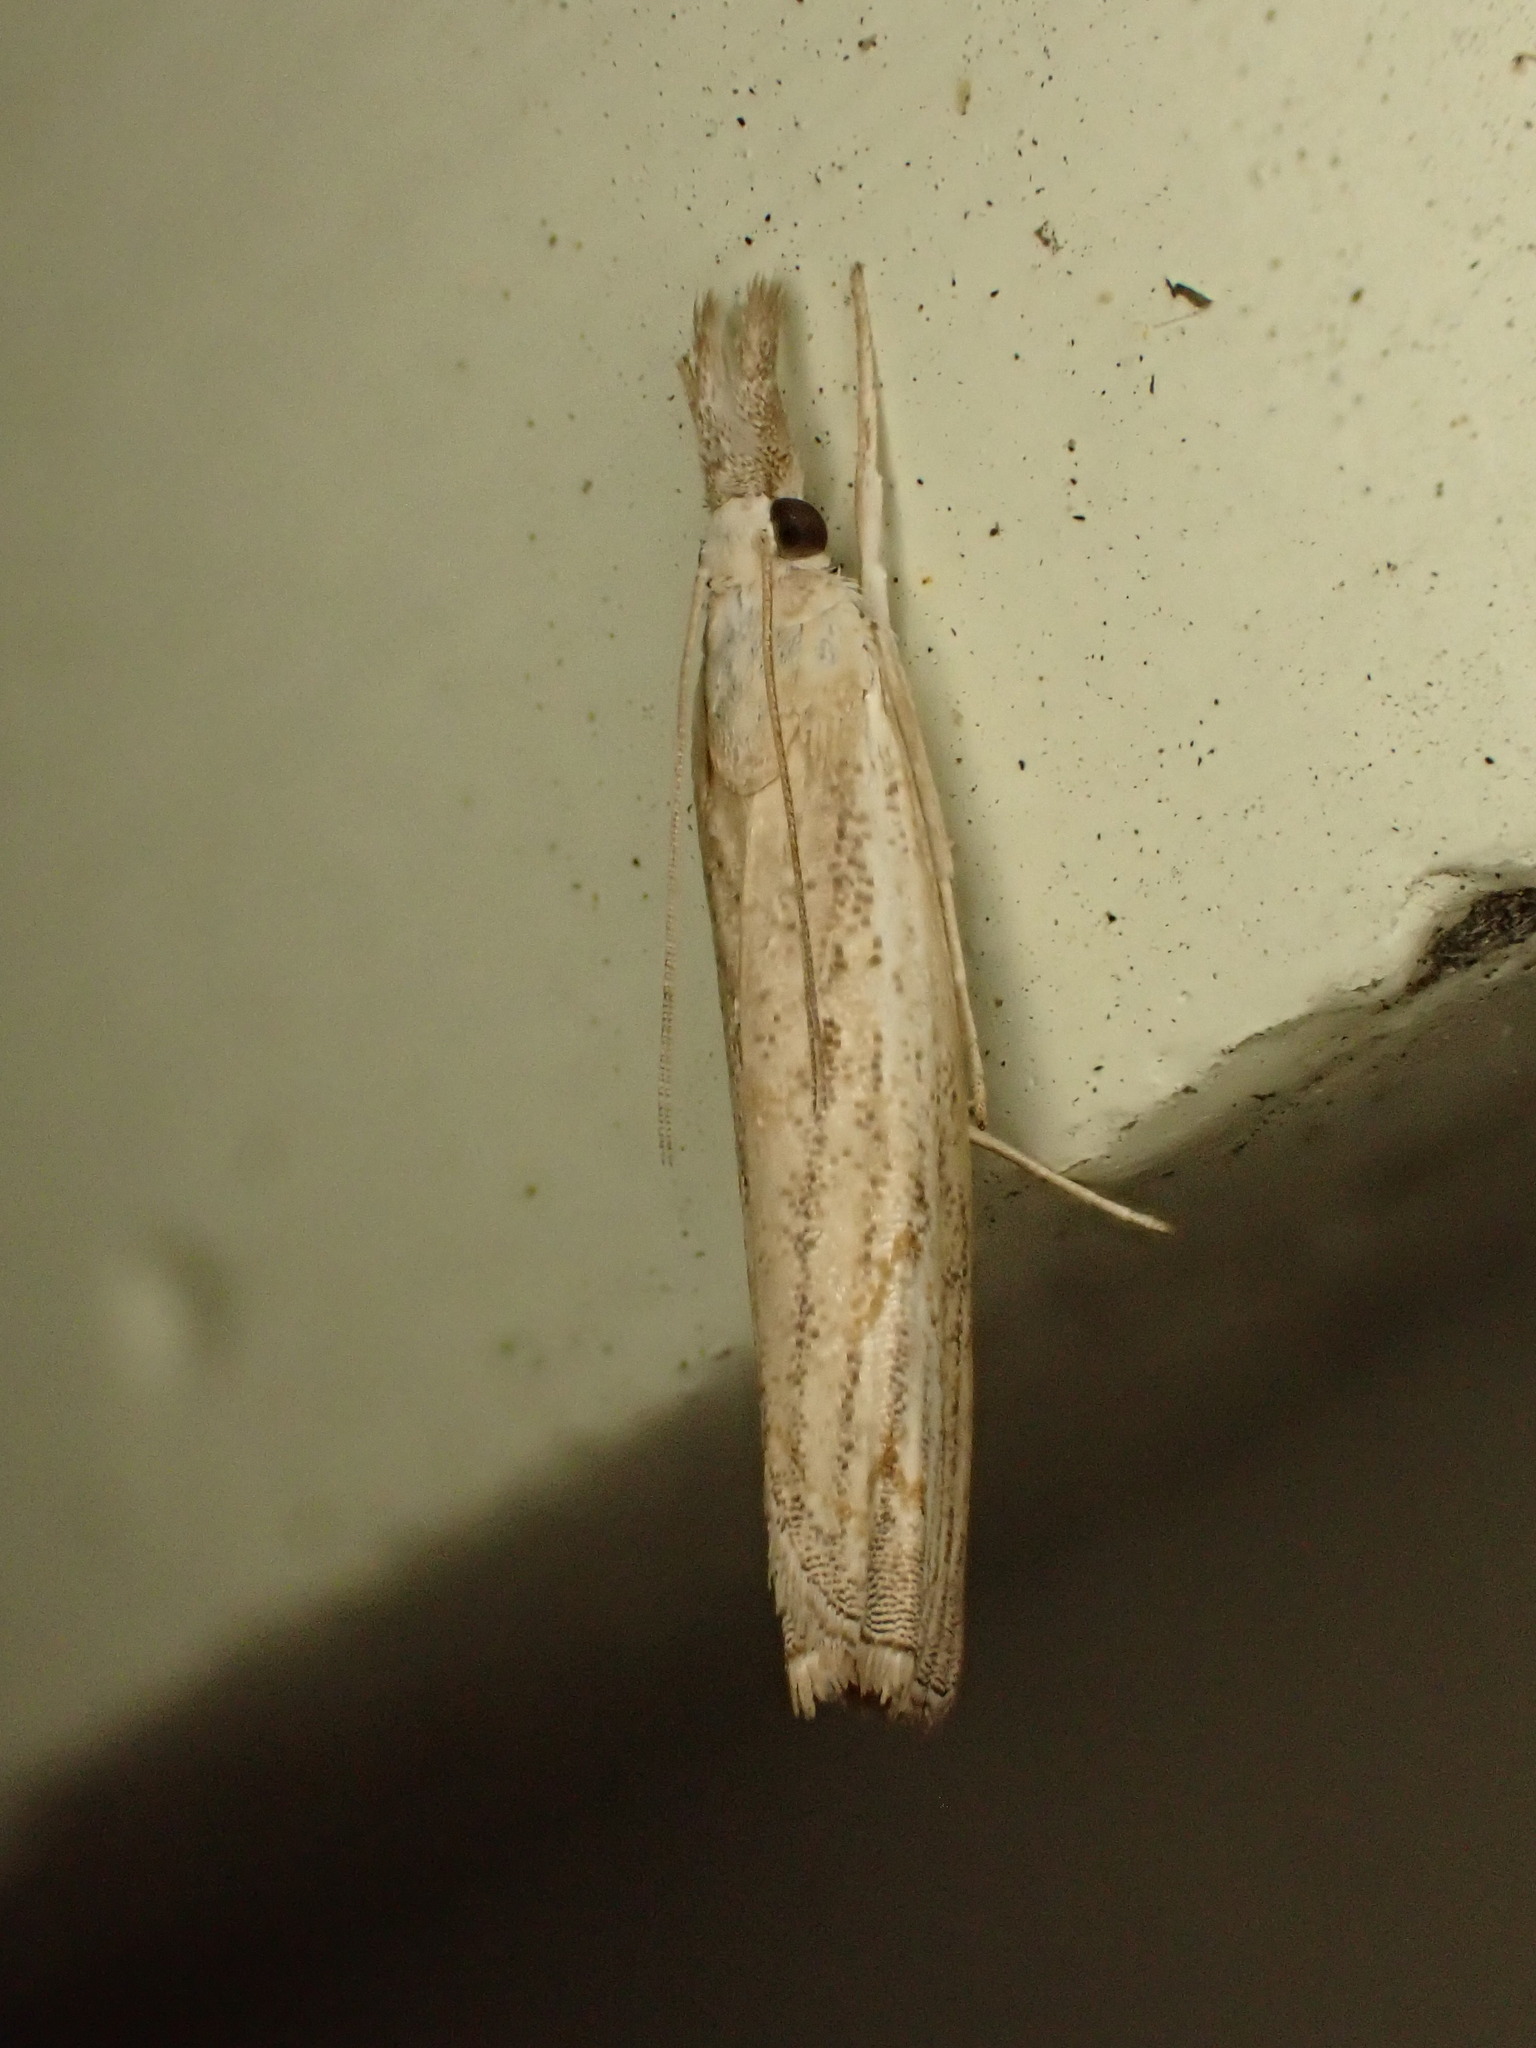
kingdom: Animalia
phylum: Arthropoda
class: Insecta
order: Lepidoptera
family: Crambidae
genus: Culladia
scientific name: Culladia cuneiferellus
